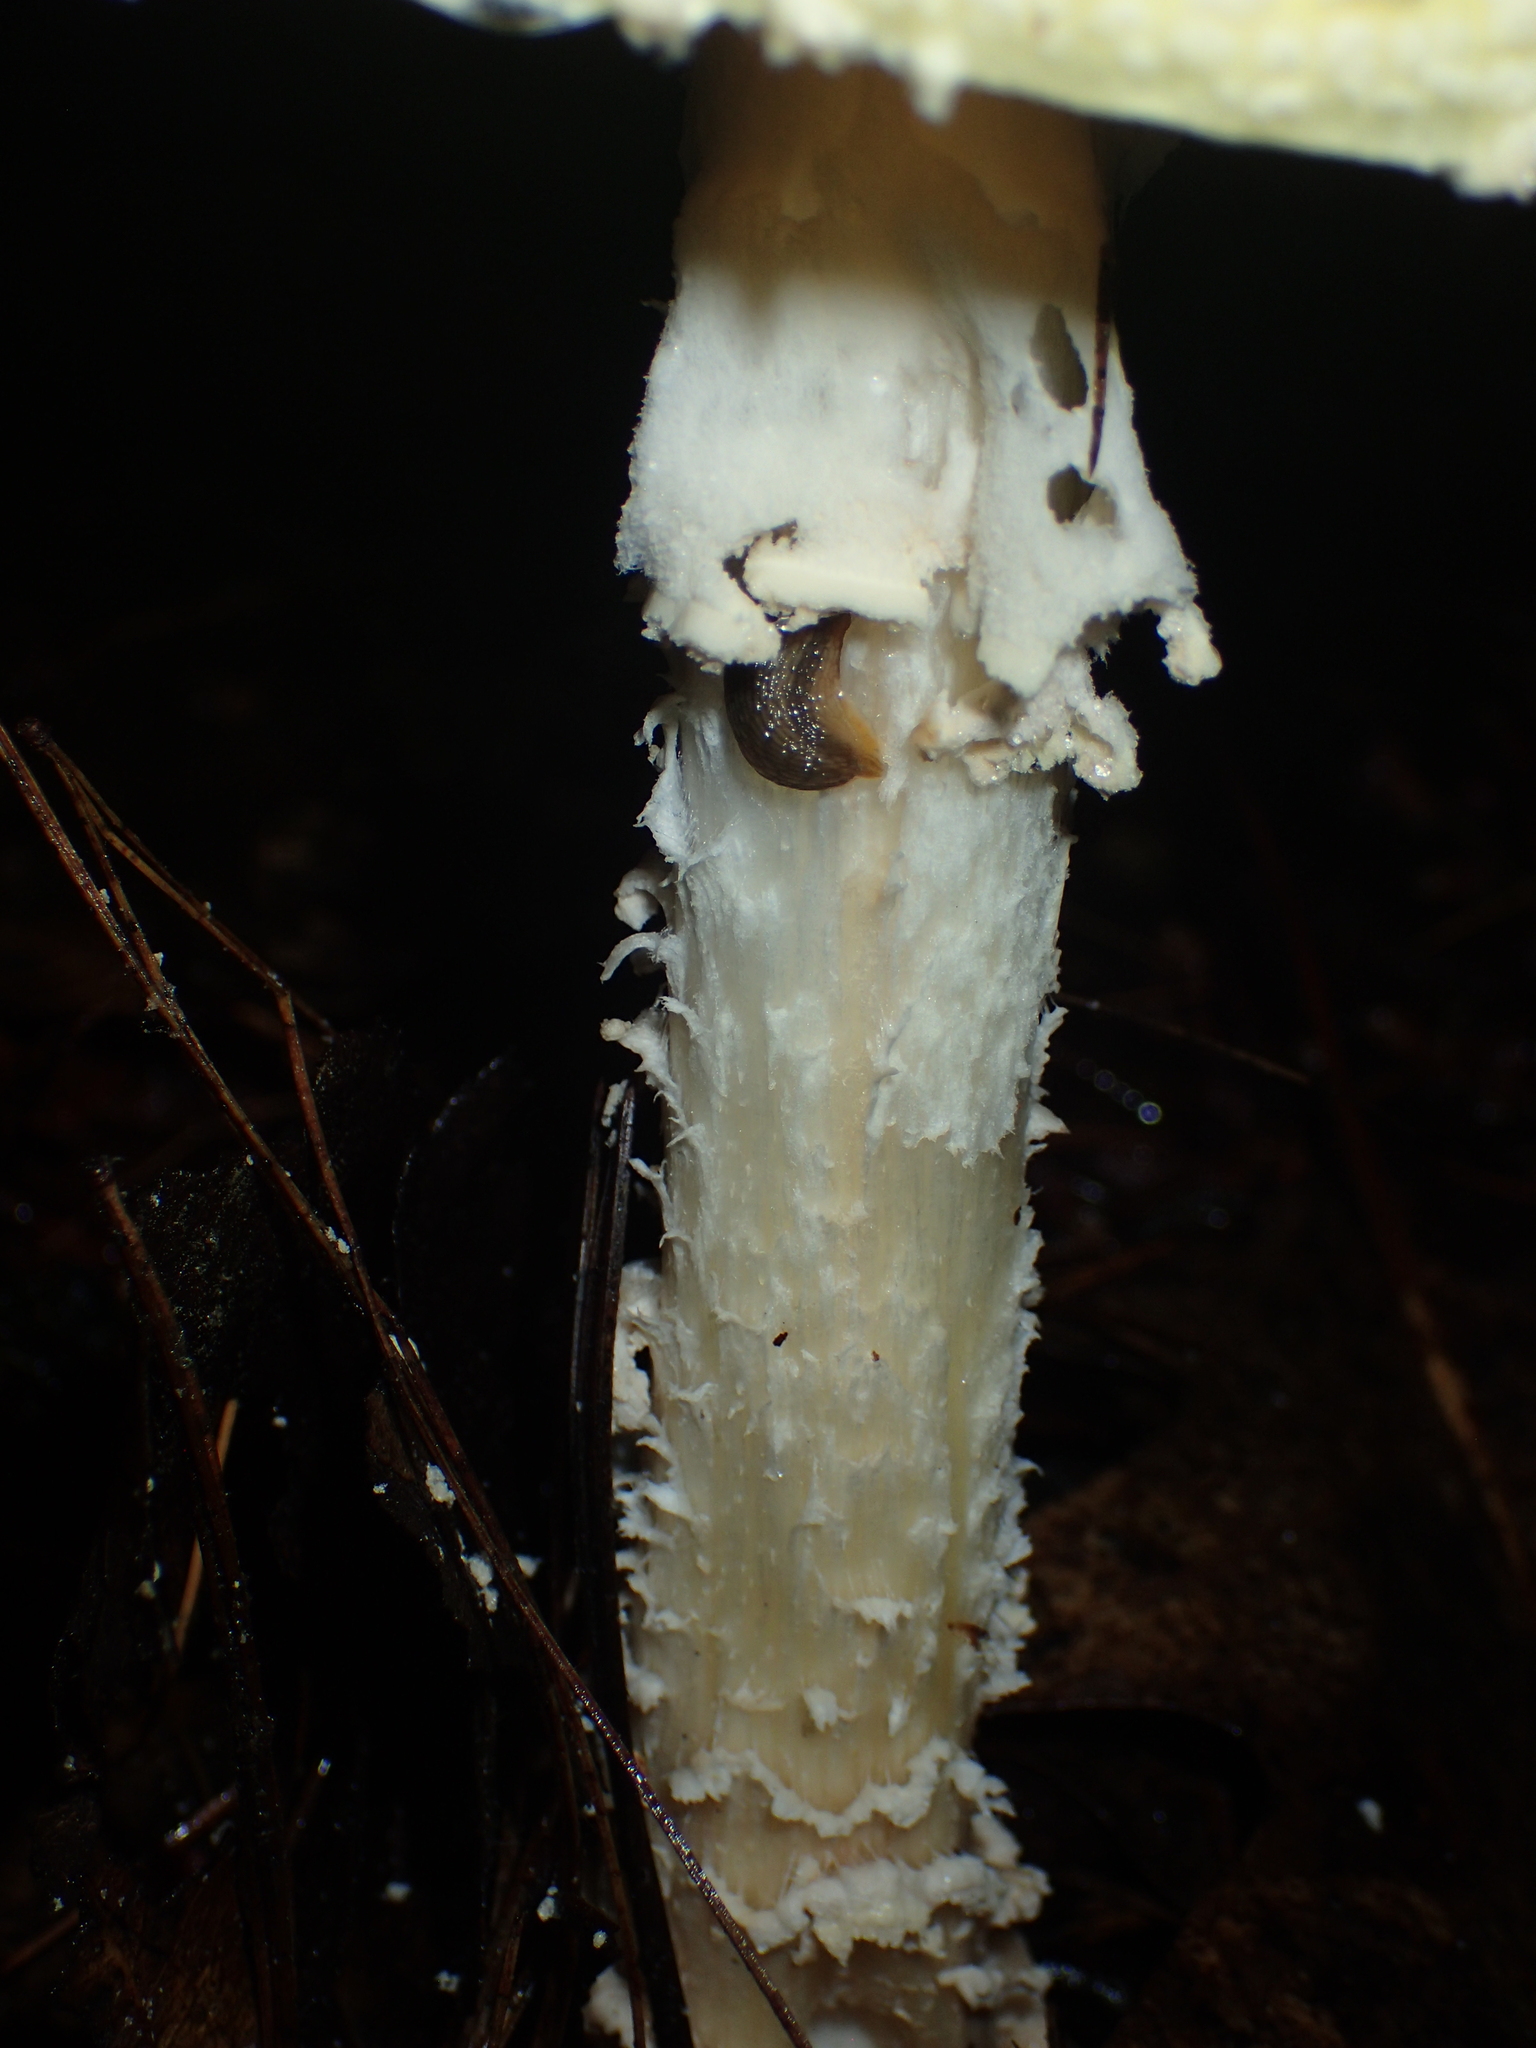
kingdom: Fungi
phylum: Basidiomycota
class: Agaricomycetes
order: Agaricales
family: Amanitaceae
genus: Amanita
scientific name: Amanita muscaria
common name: Fly agaric
